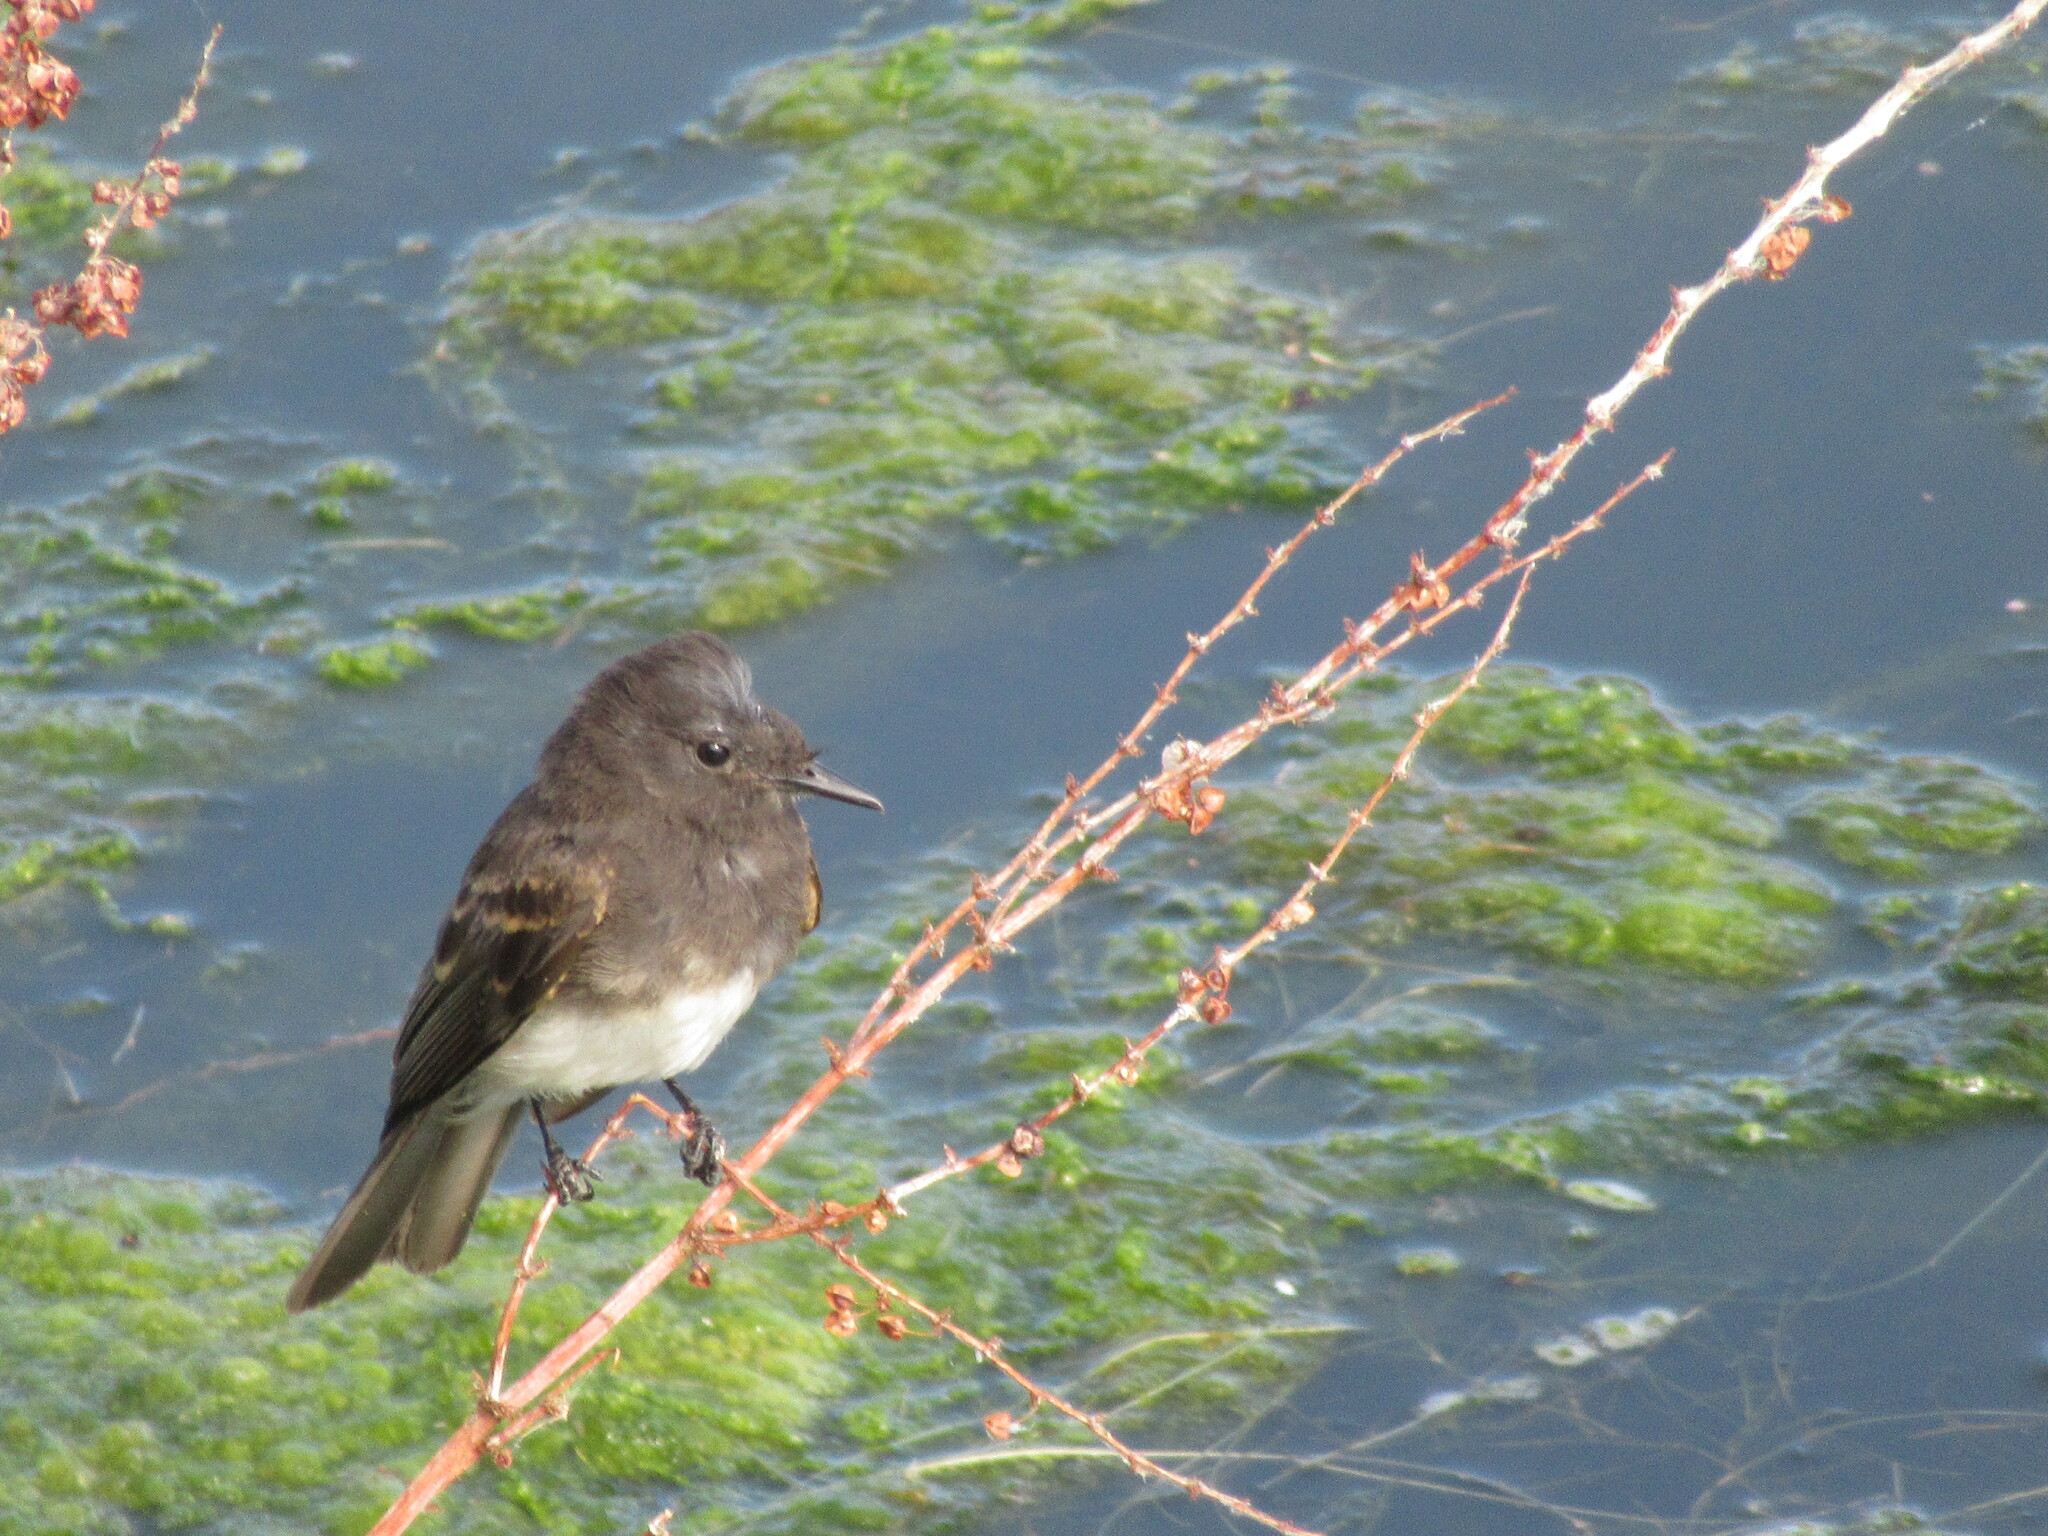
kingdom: Animalia
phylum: Chordata
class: Aves
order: Passeriformes
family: Tyrannidae
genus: Sayornis
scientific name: Sayornis nigricans
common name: Black phoebe
